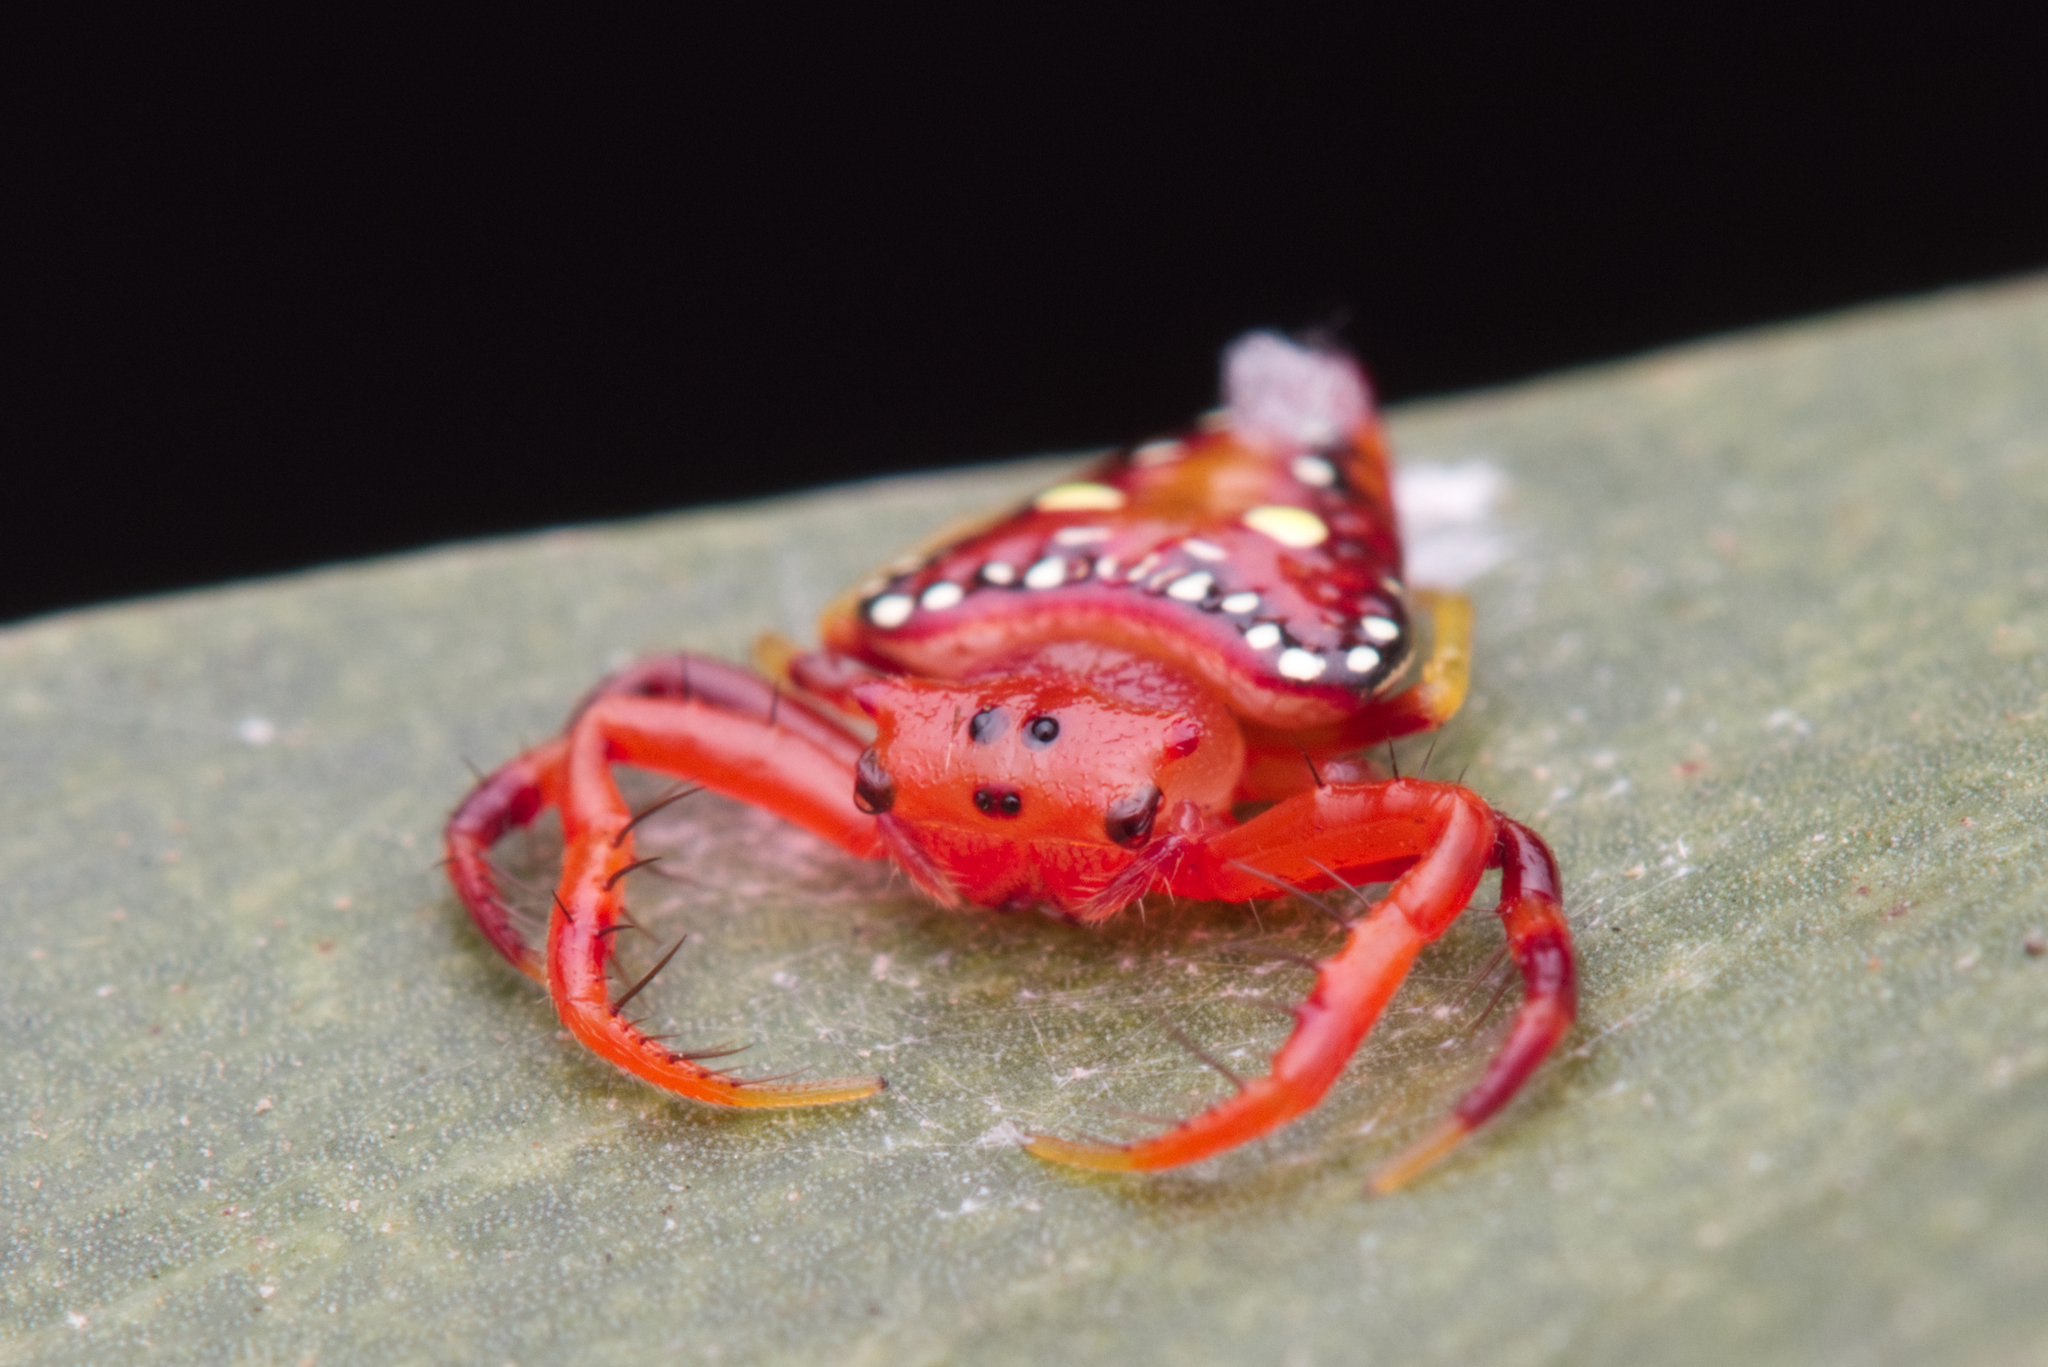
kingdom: Animalia
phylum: Arthropoda
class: Arachnida
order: Araneae
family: Arkyidae
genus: Arkys
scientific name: Arkys lancearius
